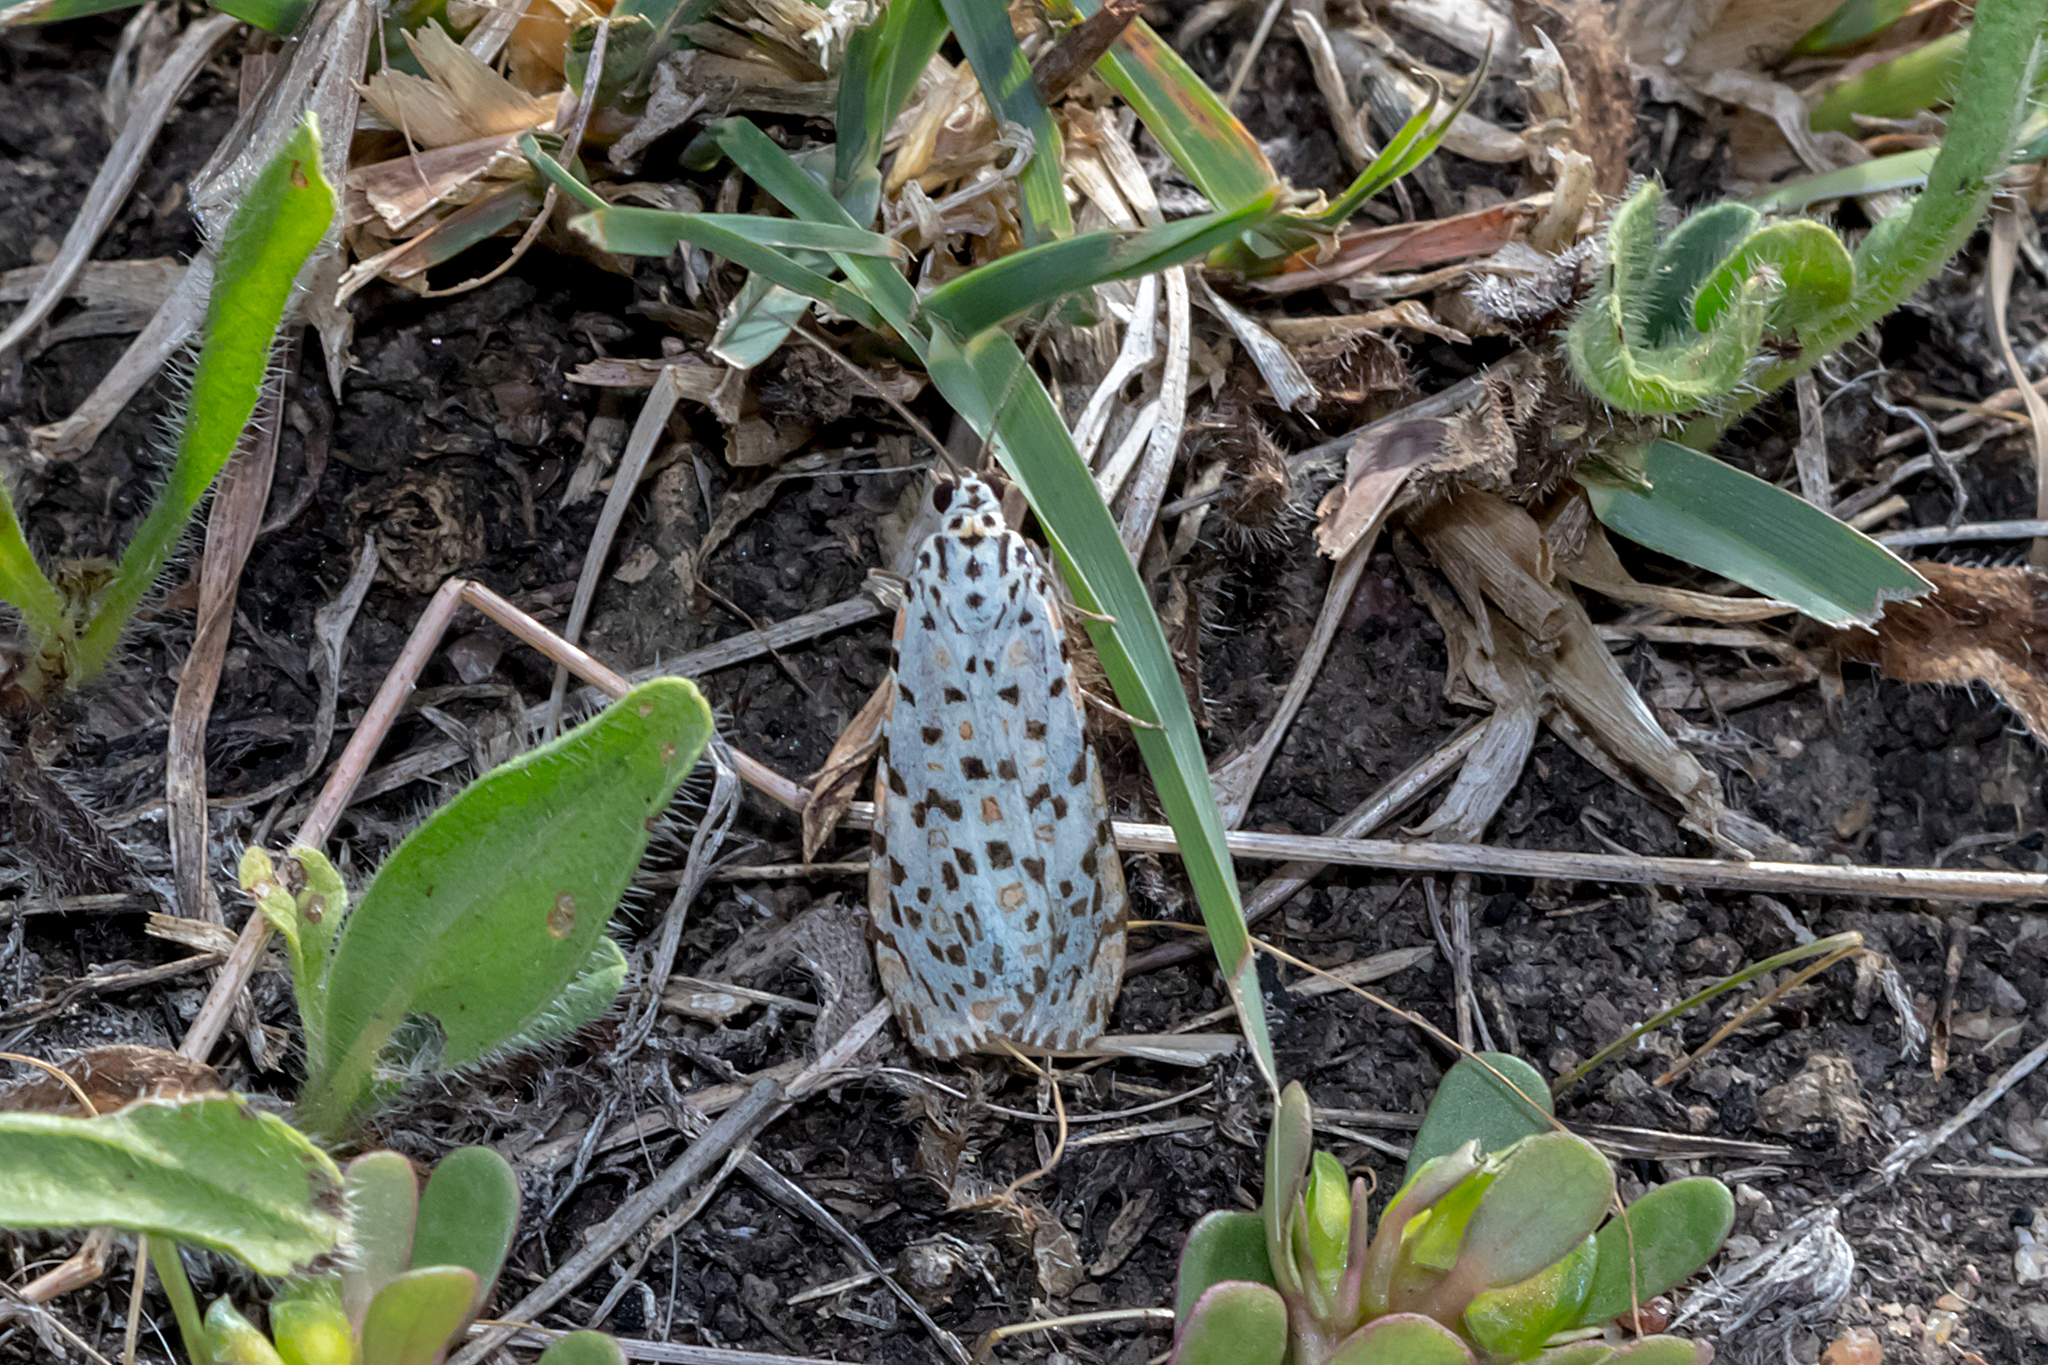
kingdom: Animalia
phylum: Arthropoda
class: Insecta
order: Lepidoptera
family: Erebidae
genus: Utetheisa
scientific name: Utetheisa pulchelloides
